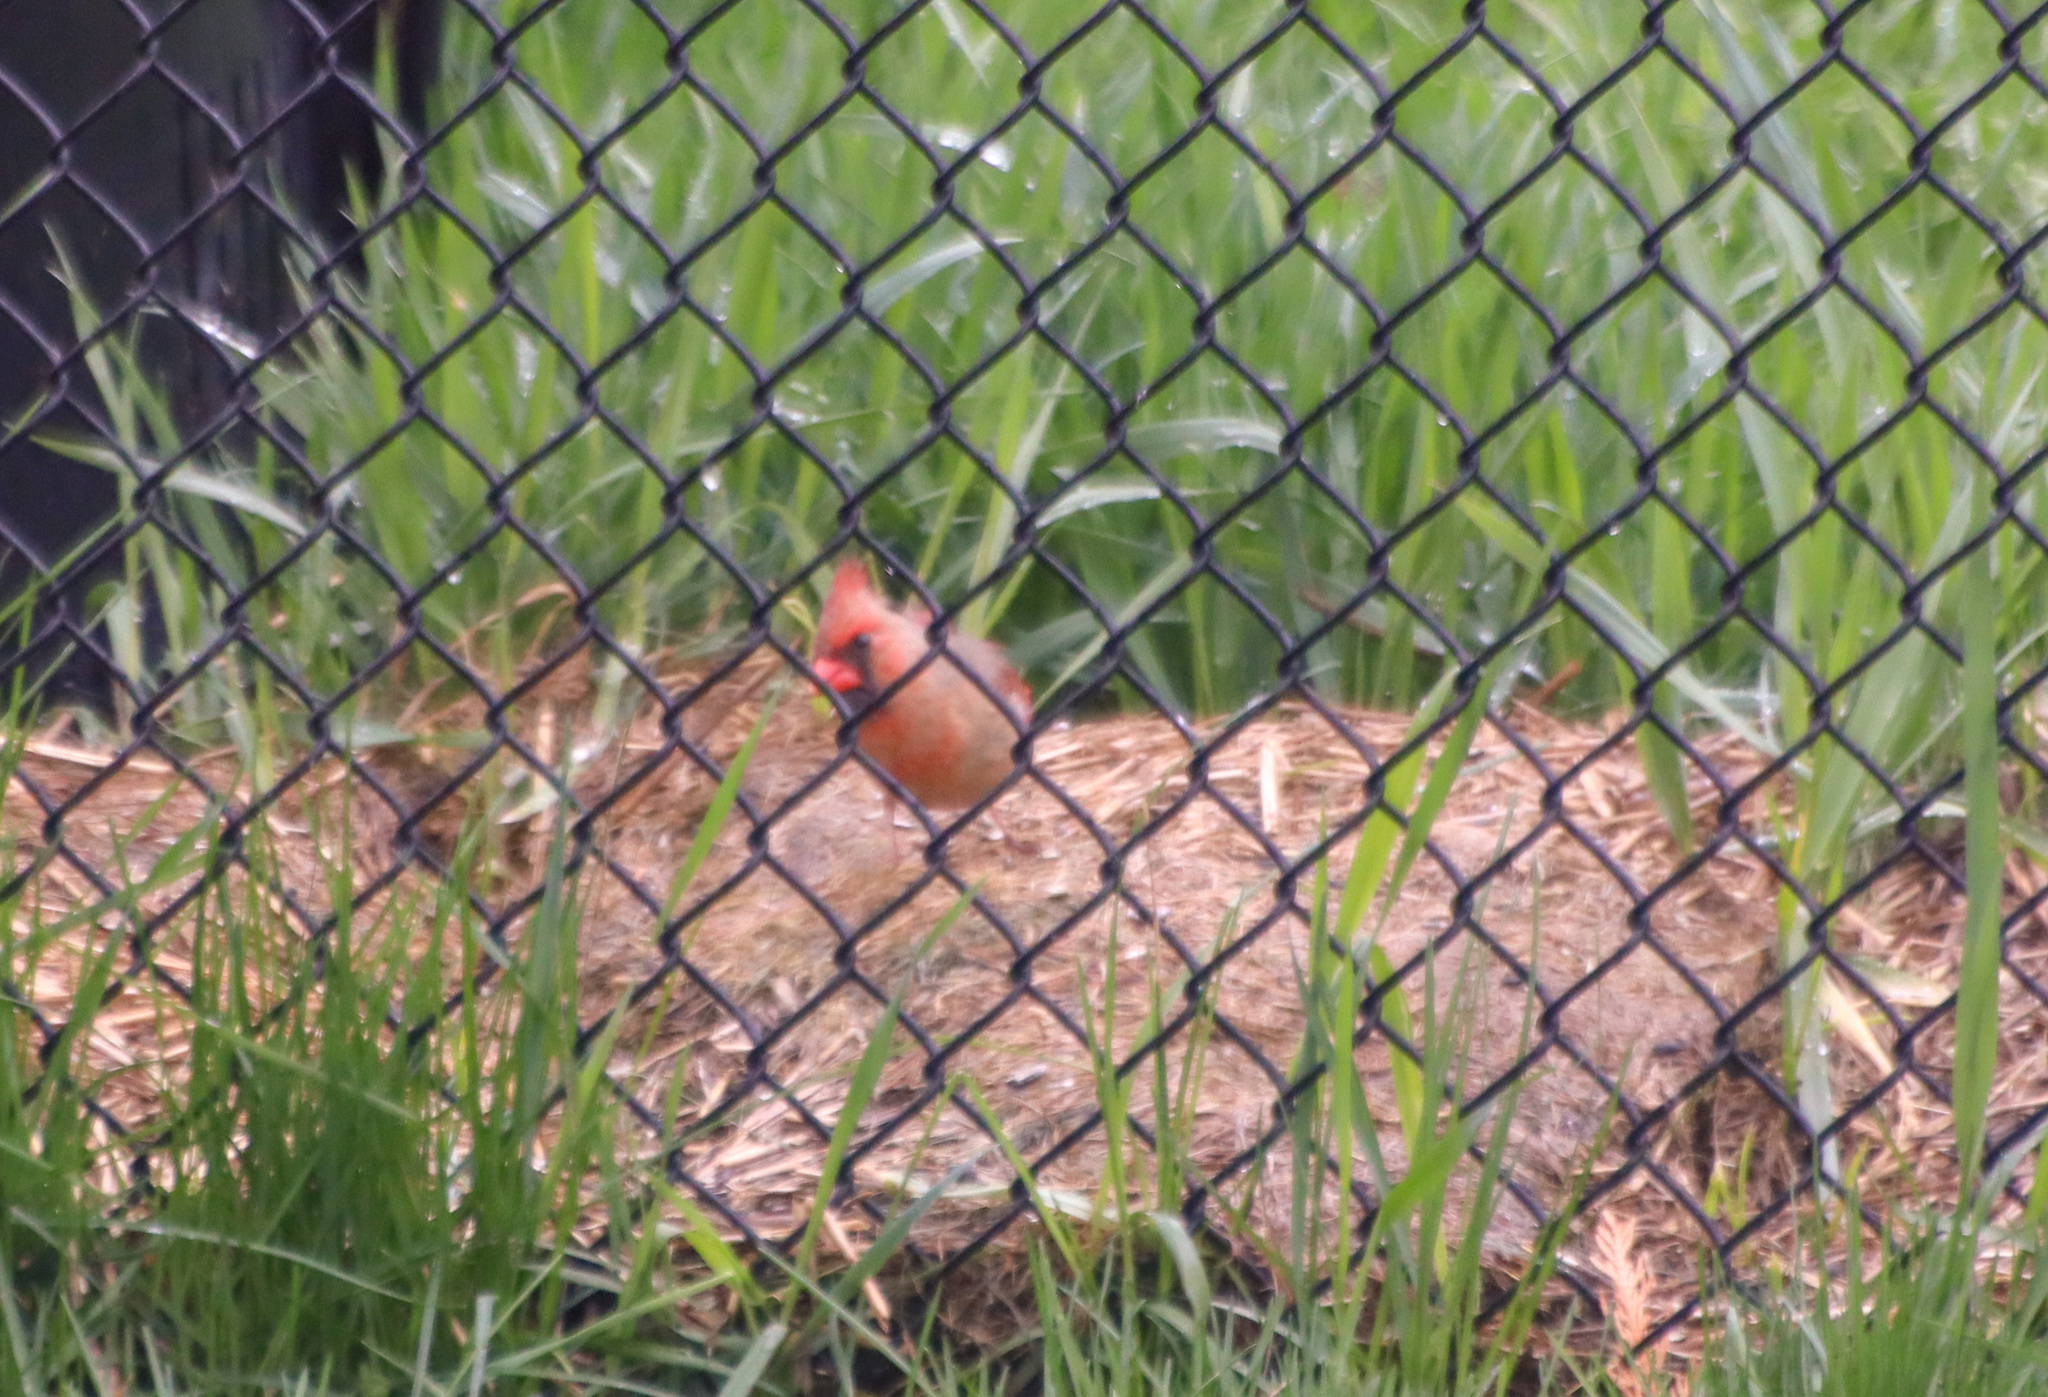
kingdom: Animalia
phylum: Chordata
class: Aves
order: Passeriformes
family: Cardinalidae
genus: Cardinalis
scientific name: Cardinalis cardinalis
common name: Northern cardinal
